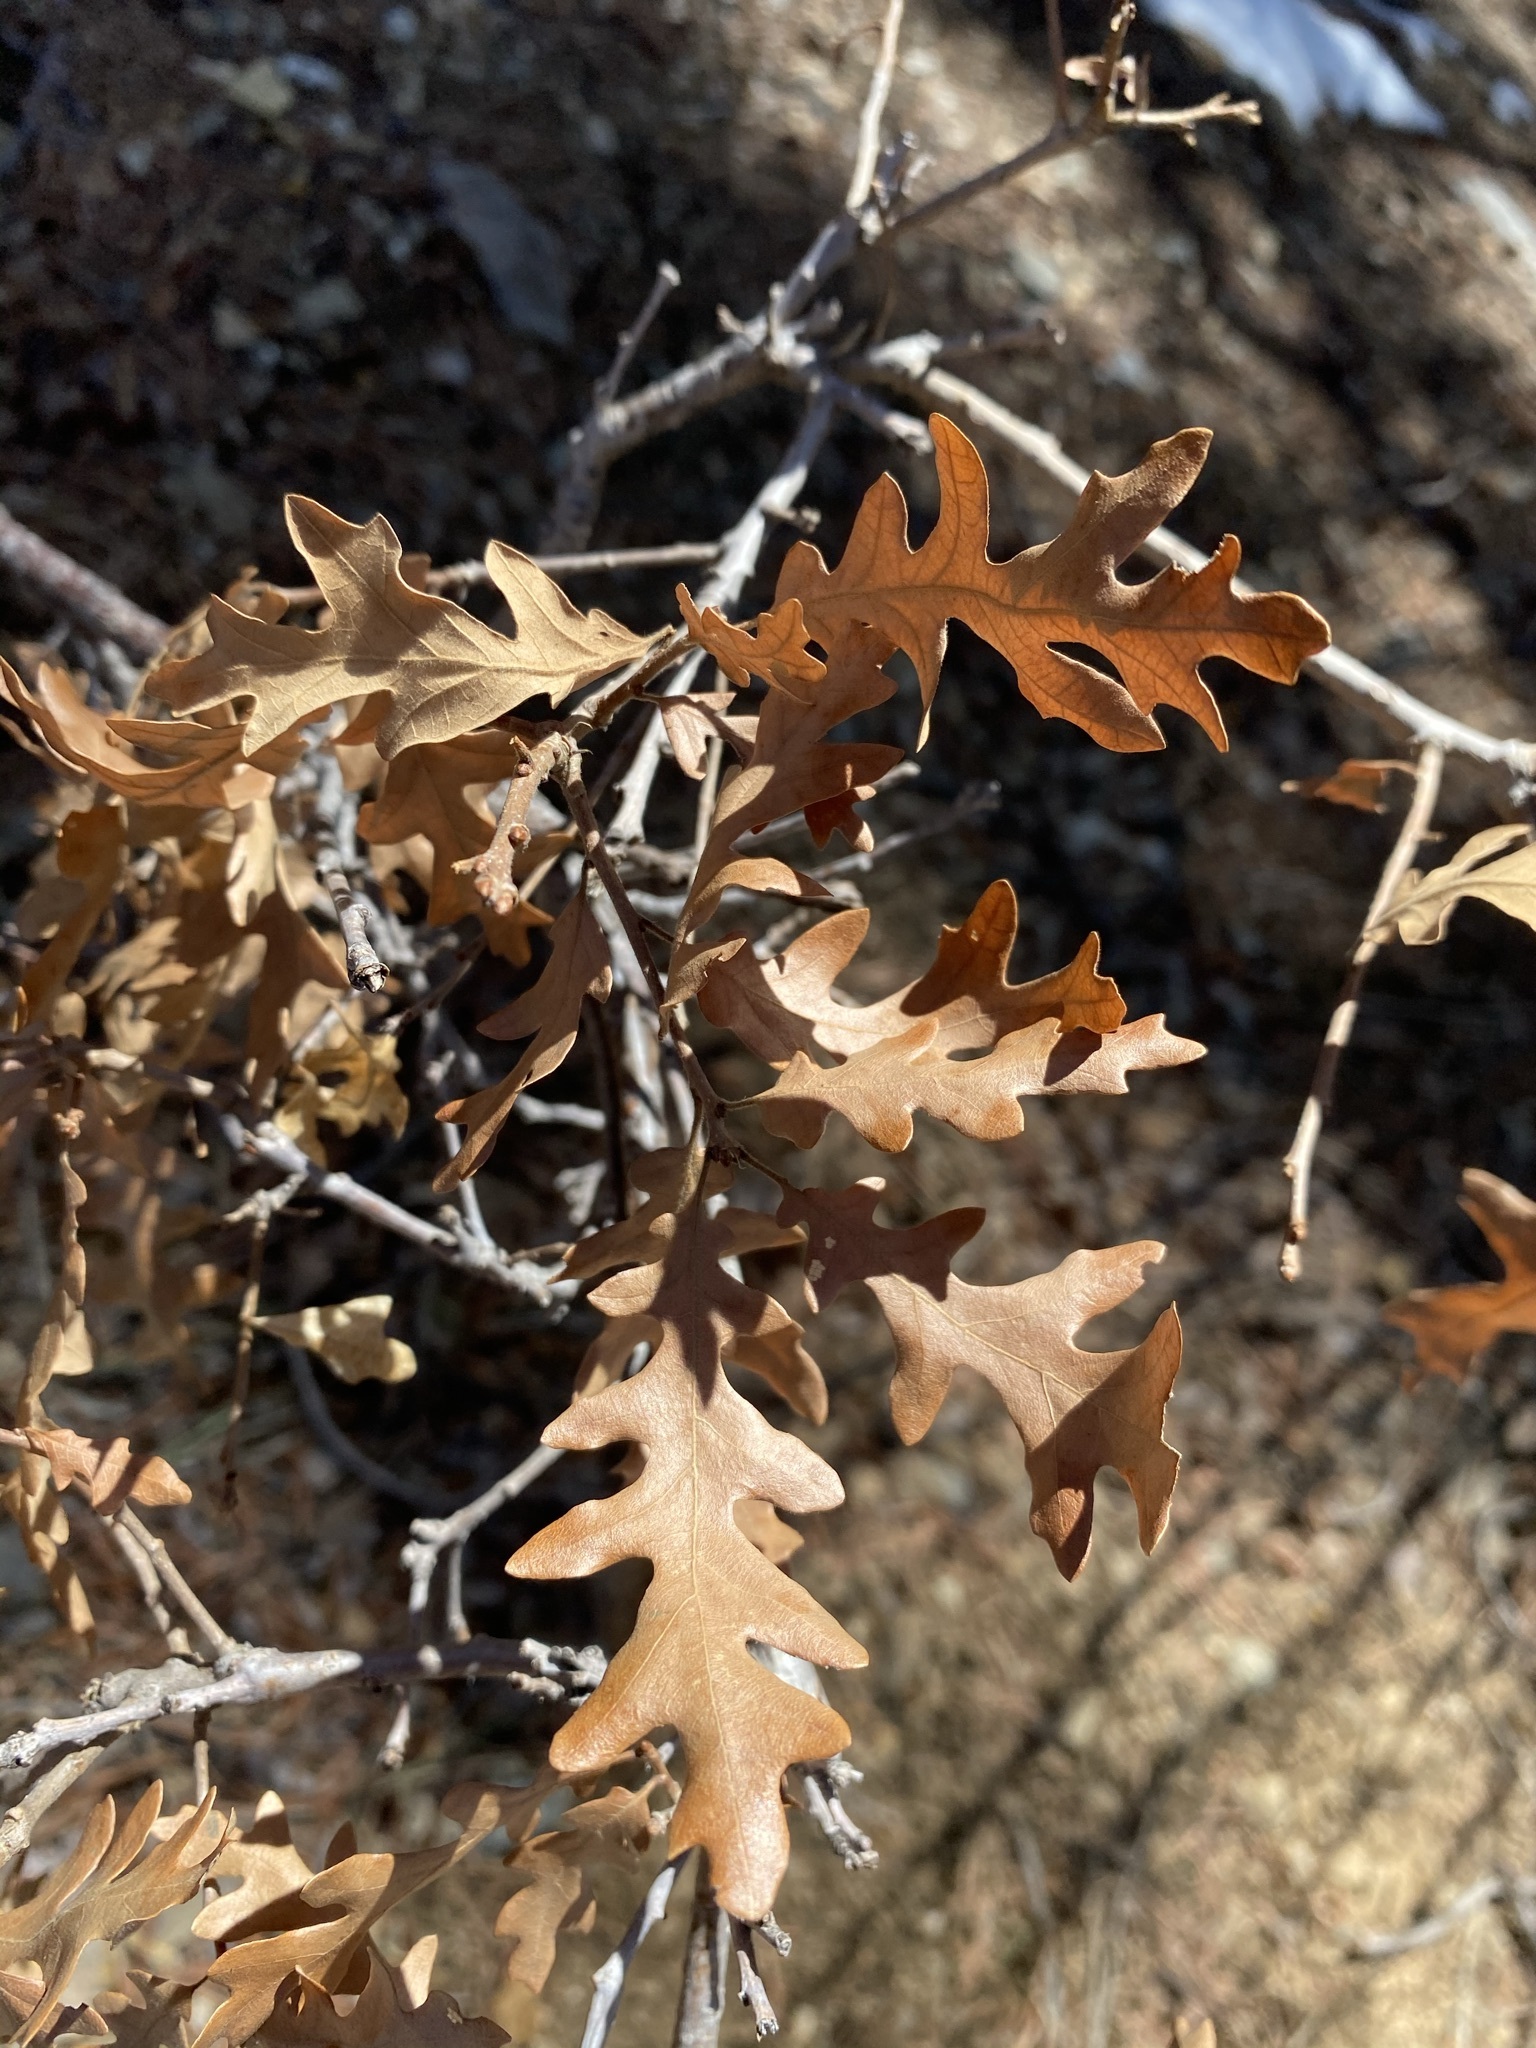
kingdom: Plantae
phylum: Tracheophyta
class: Magnoliopsida
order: Fagales
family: Fagaceae
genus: Quercus
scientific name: Quercus gambelii
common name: Gambel oak
